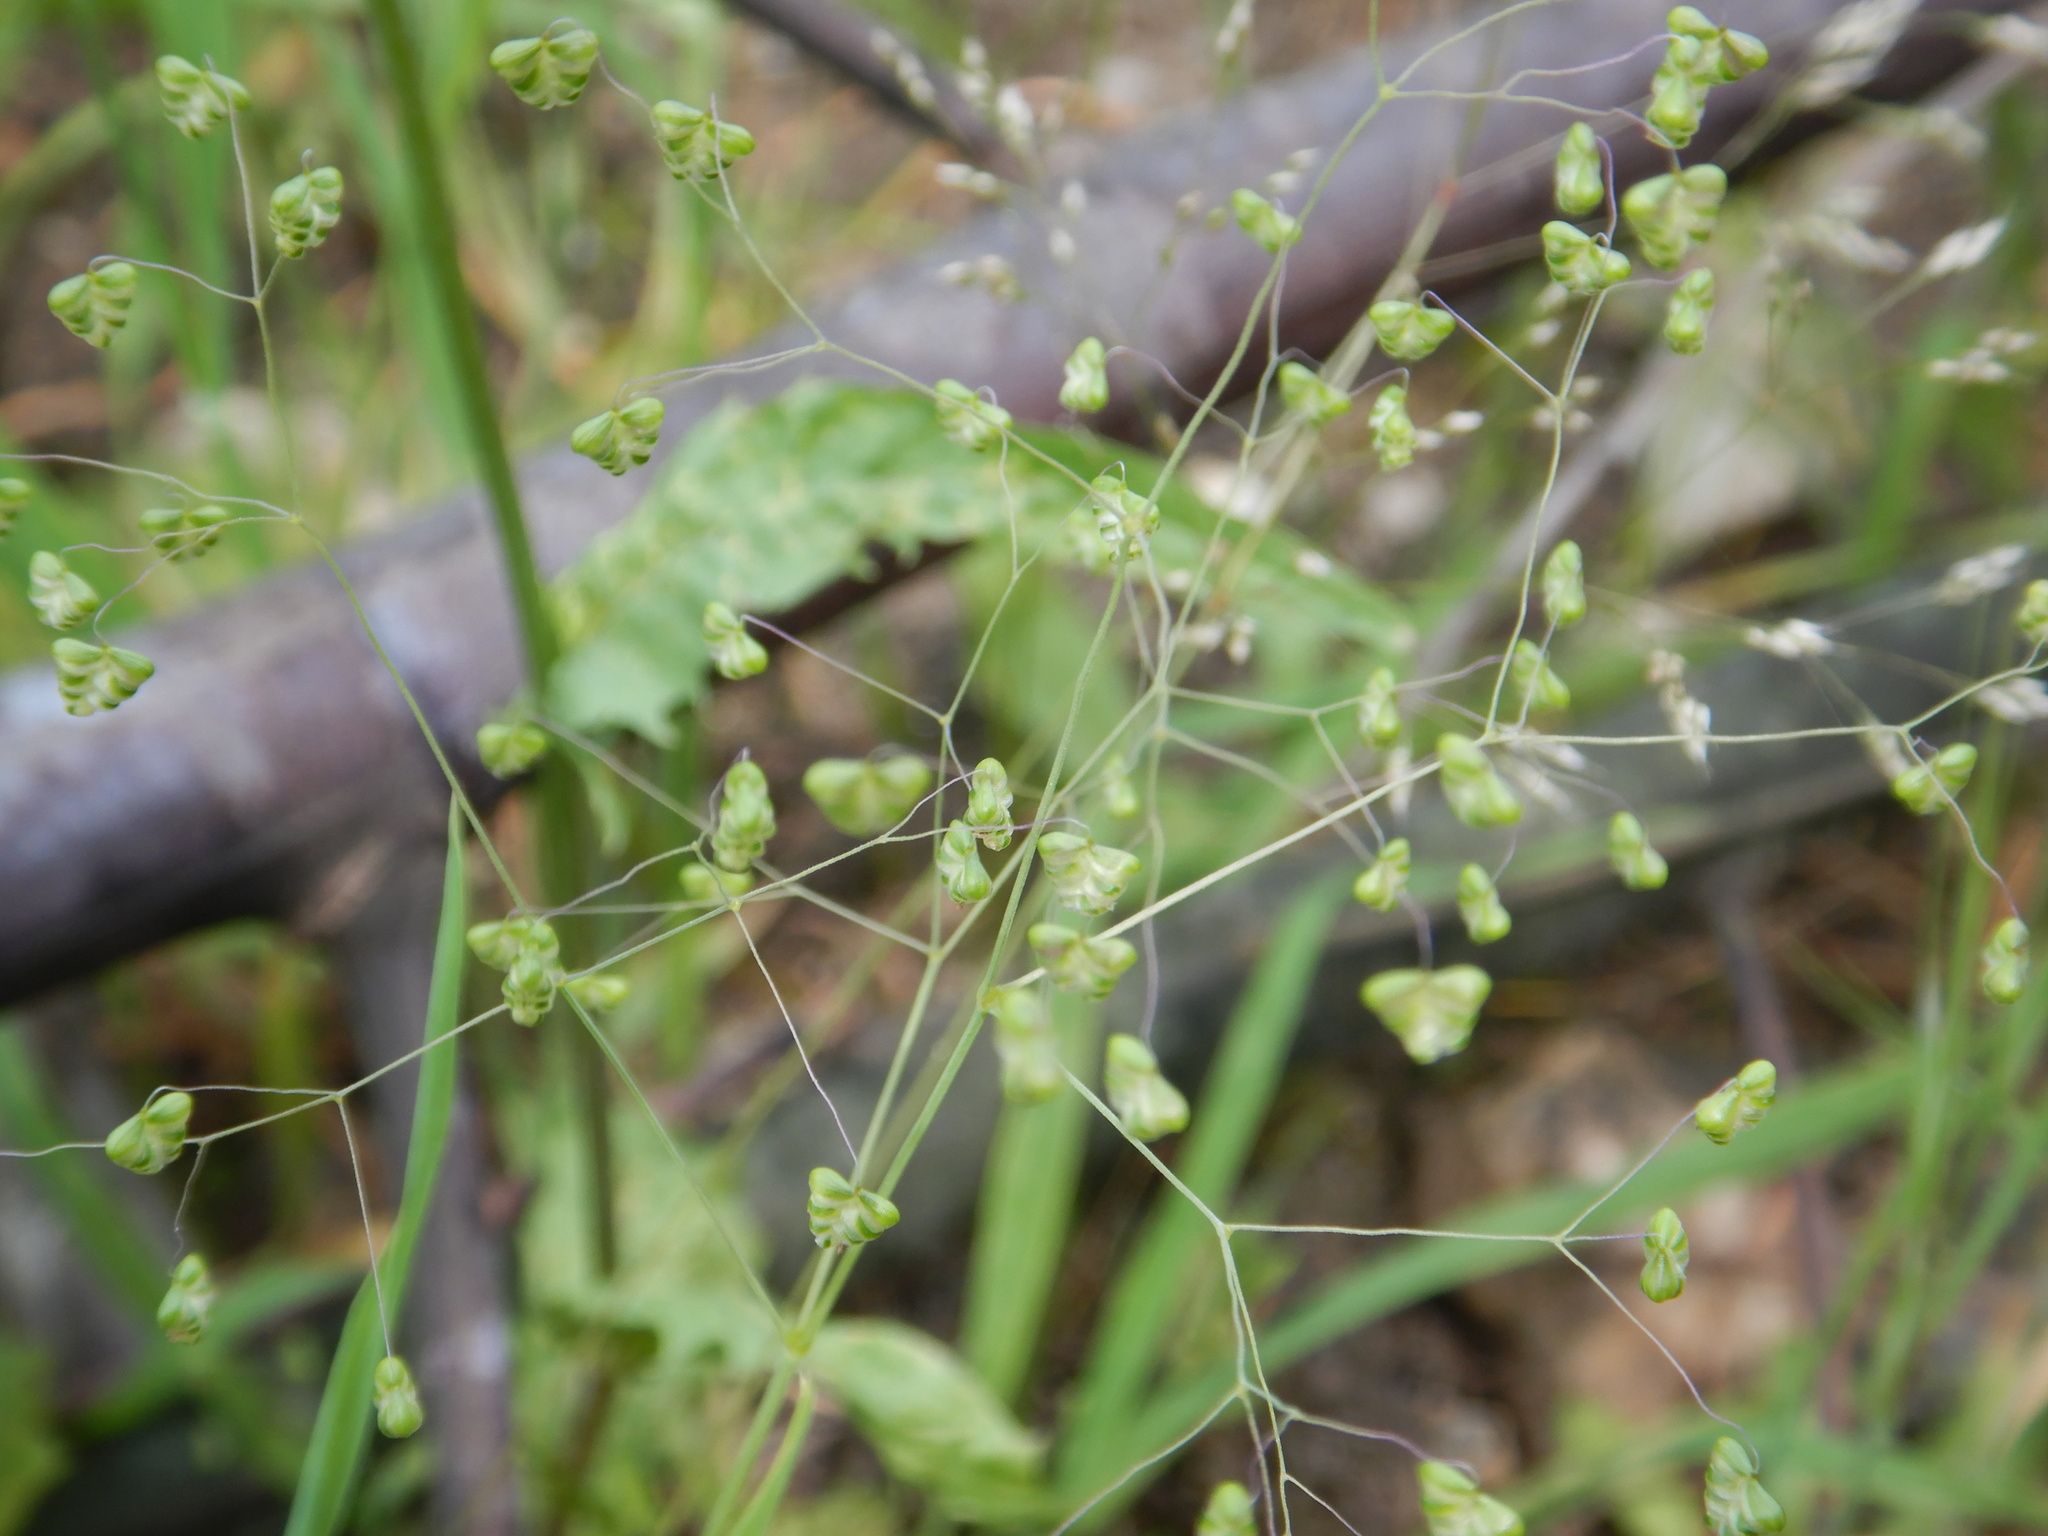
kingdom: Plantae
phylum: Tracheophyta
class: Liliopsida
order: Poales
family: Poaceae
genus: Briza
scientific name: Briza minor
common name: Lesser quaking-grass
